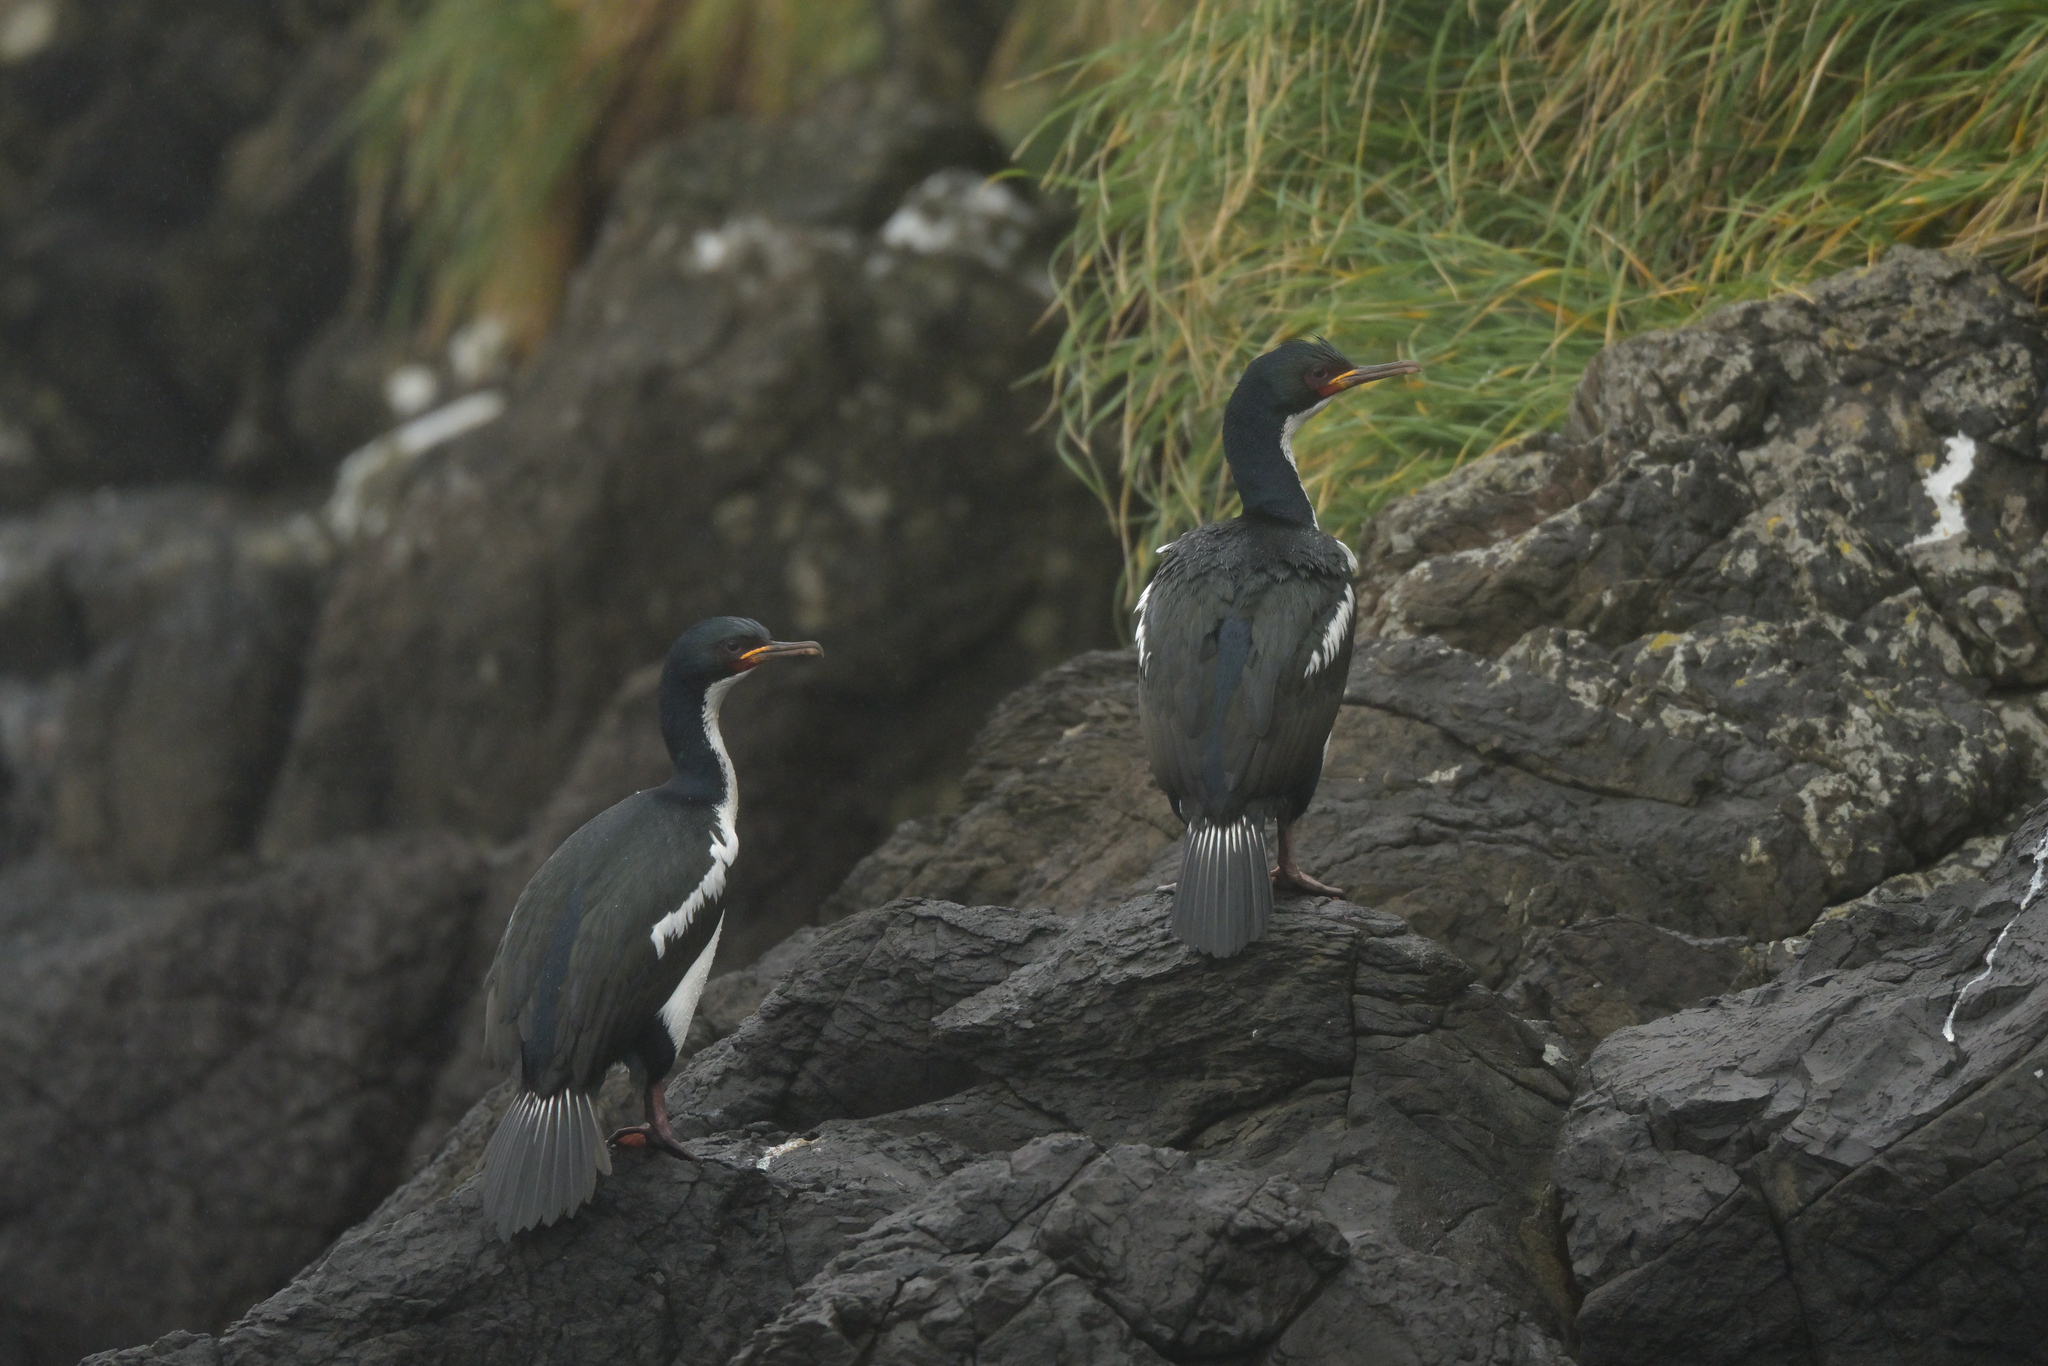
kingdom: Animalia
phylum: Chordata
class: Aves
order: Suliformes
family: Phalacrocoracidae
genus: Leucocarbo
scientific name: Leucocarbo colensoi
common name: Auckland shag
